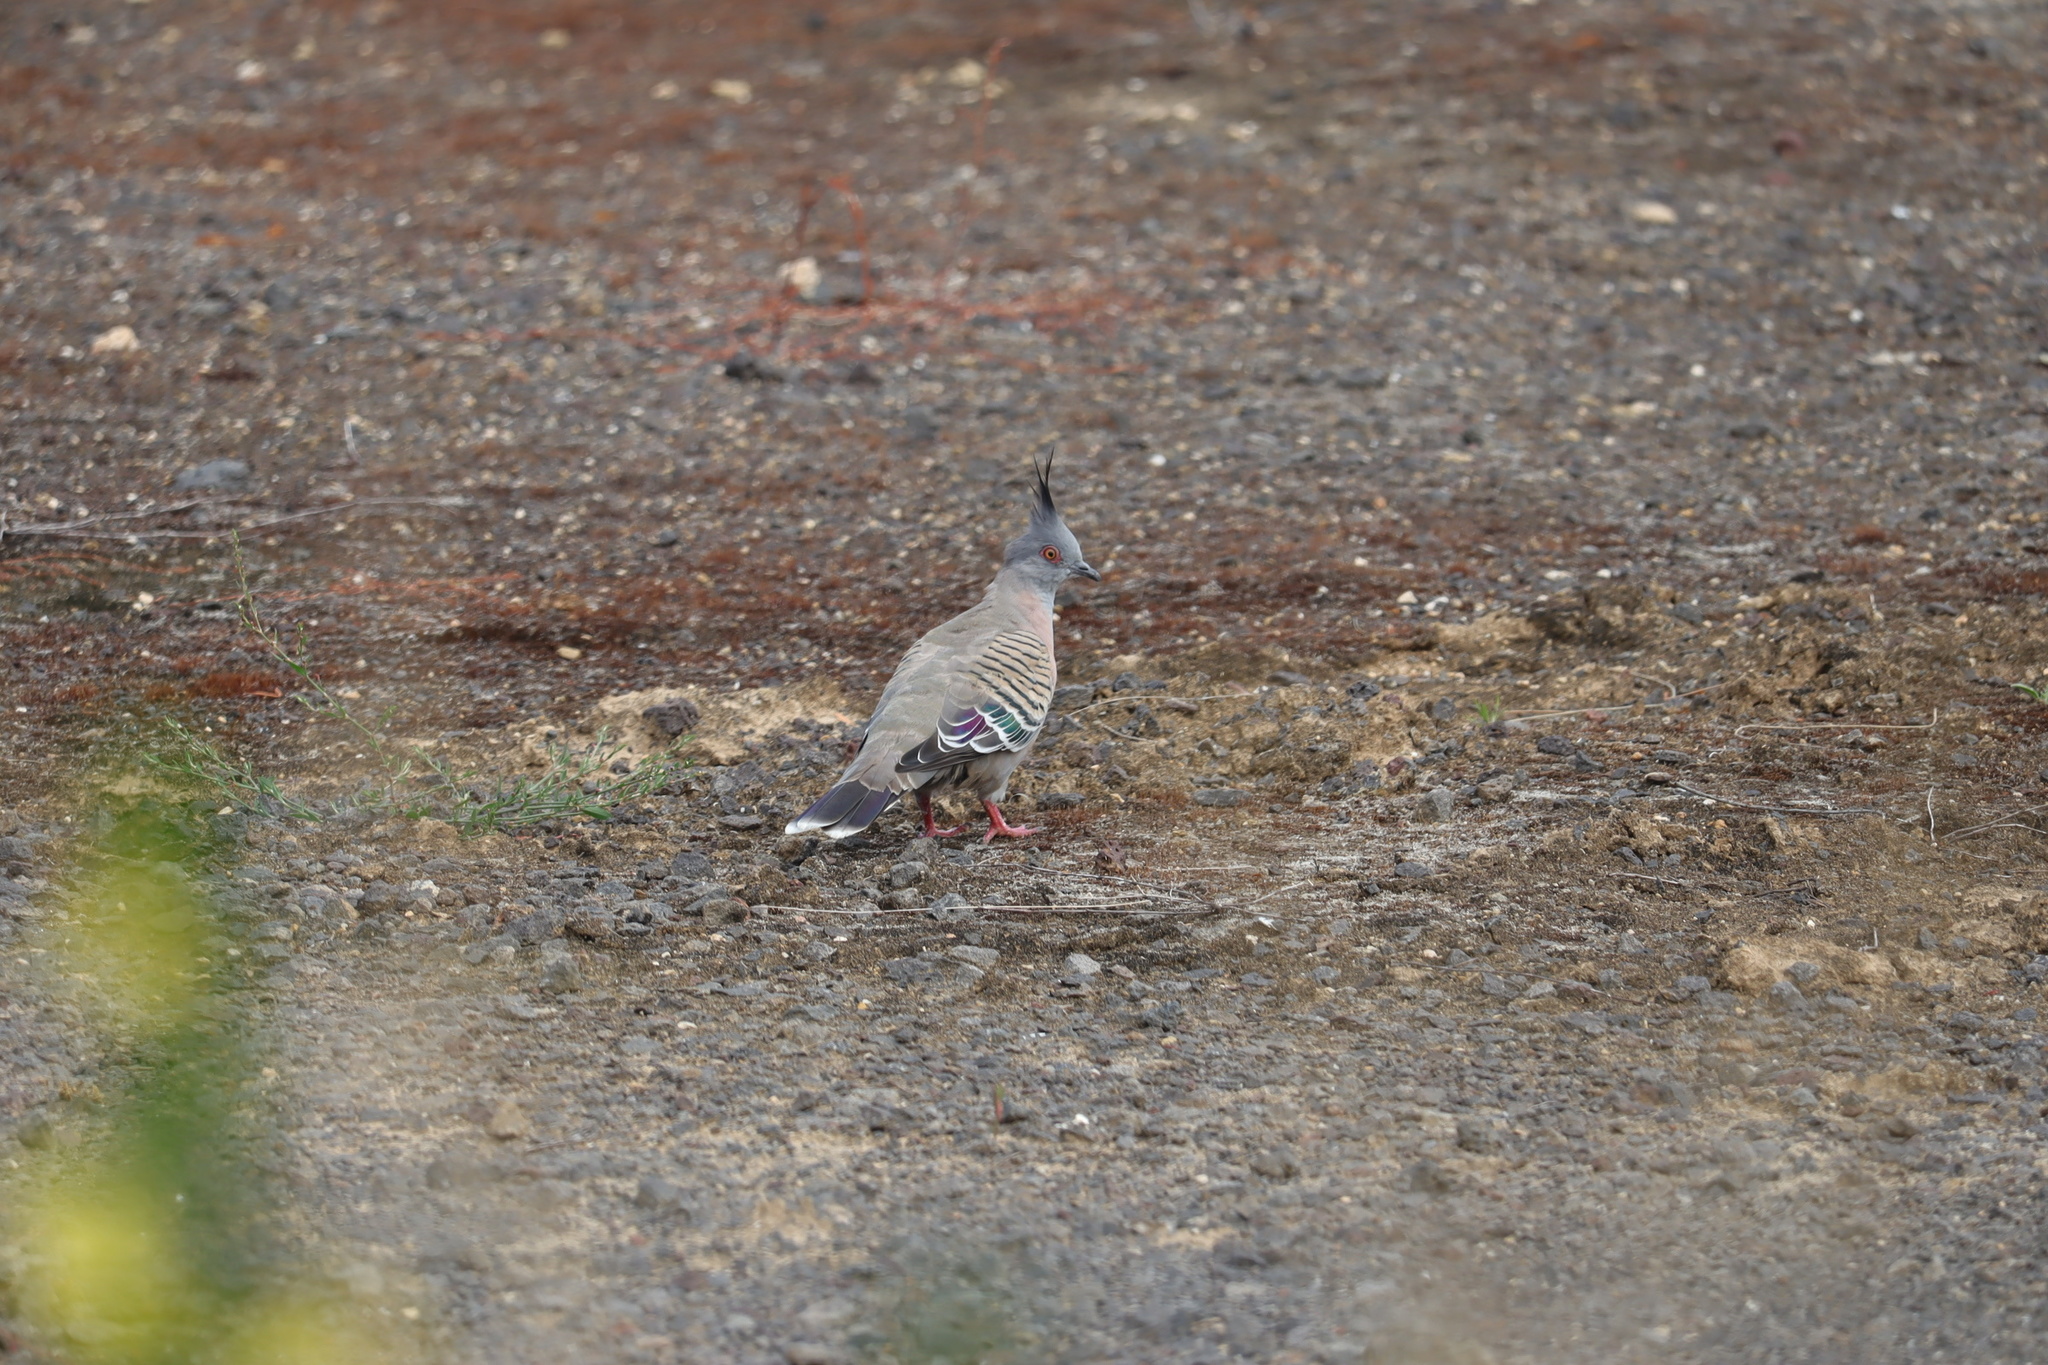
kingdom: Animalia
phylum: Chordata
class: Aves
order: Columbiformes
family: Columbidae
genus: Ocyphaps
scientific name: Ocyphaps lophotes
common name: Crested pigeon
